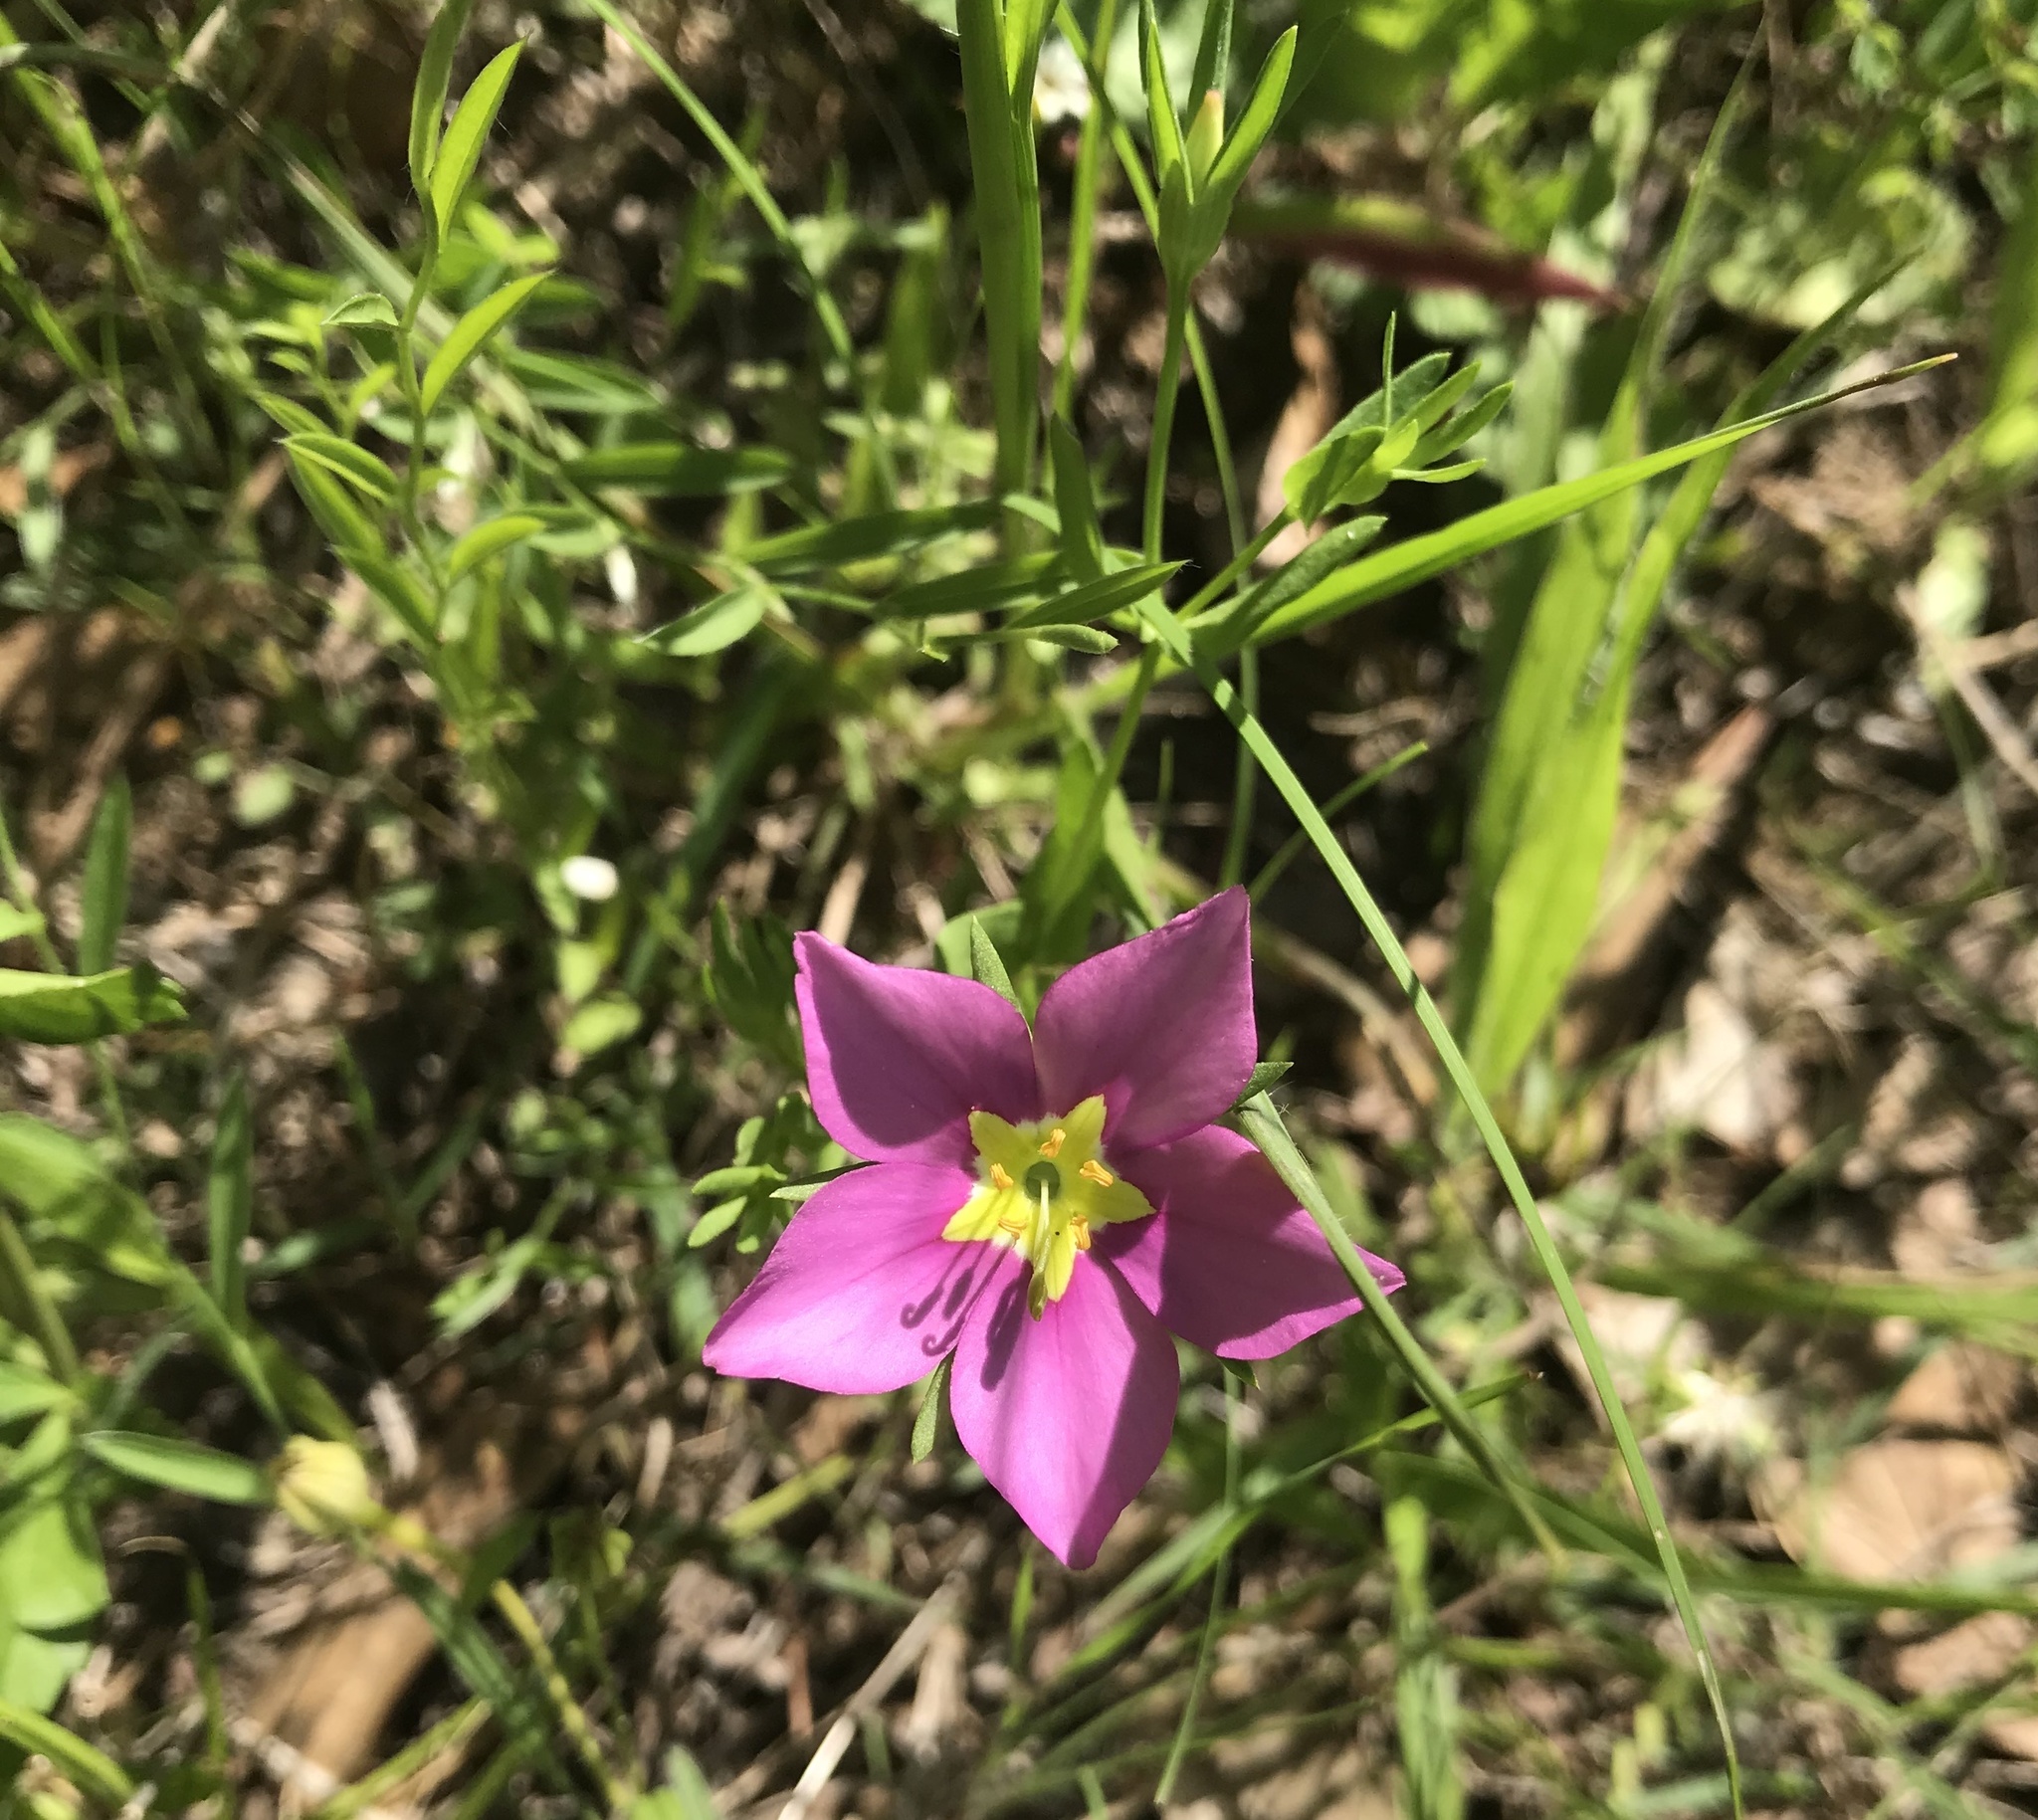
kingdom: Plantae
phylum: Tracheophyta
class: Magnoliopsida
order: Gentianales
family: Gentianaceae
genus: Sabatia
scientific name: Sabatia campestris
